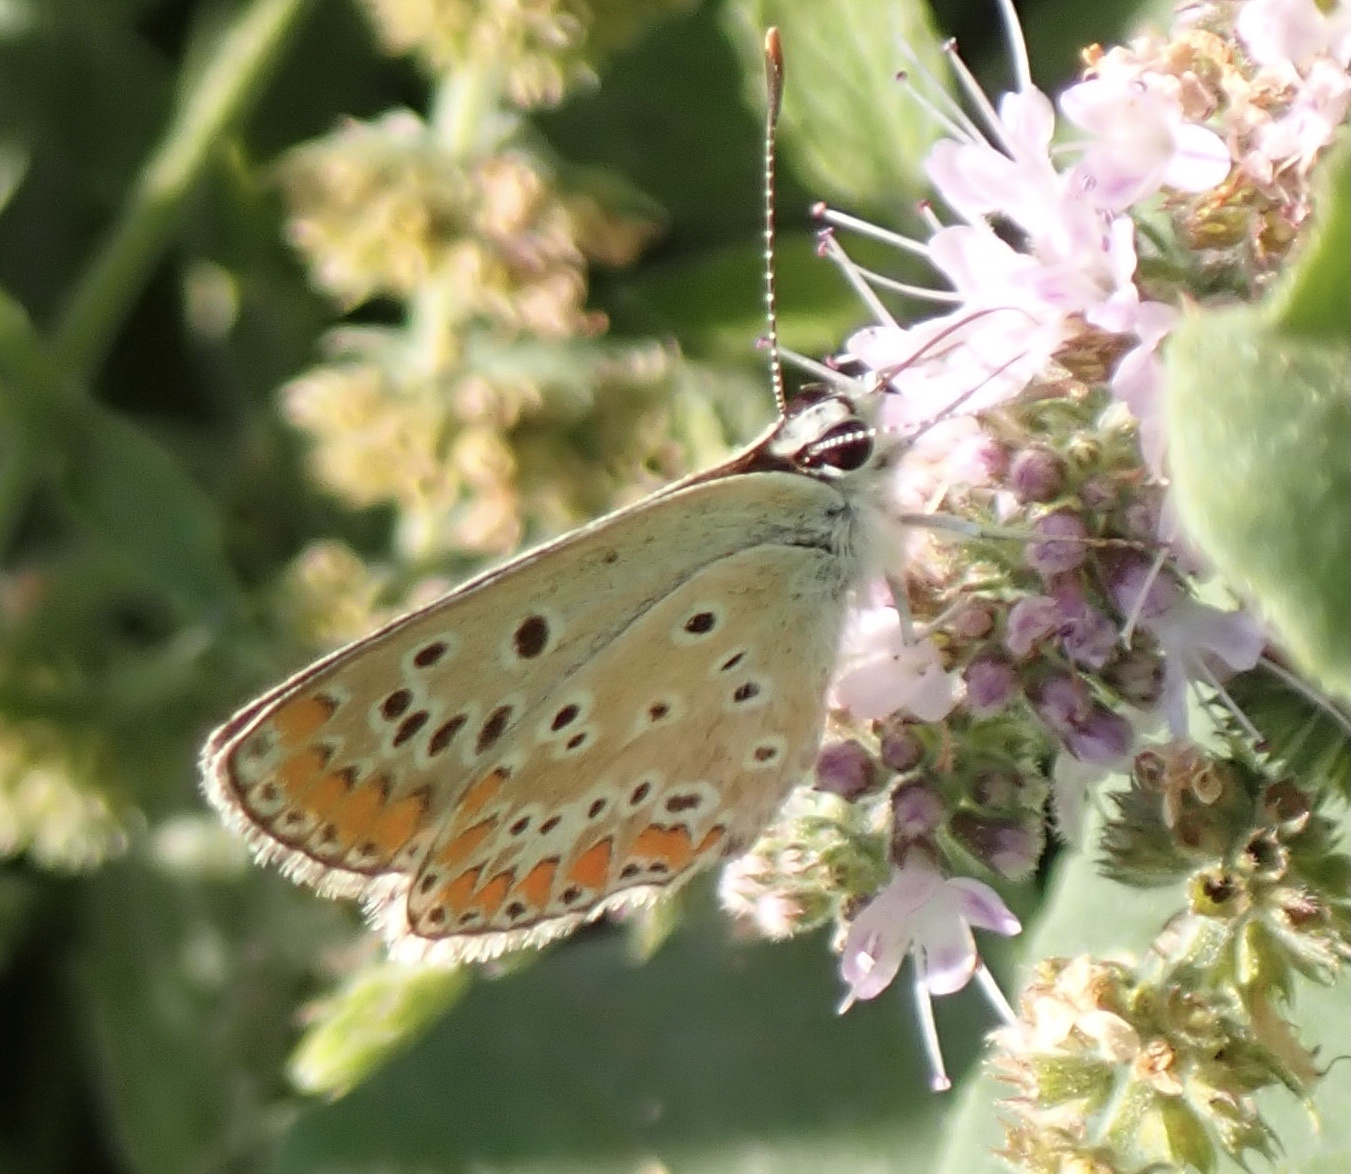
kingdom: Animalia
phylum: Arthropoda
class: Insecta
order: Lepidoptera
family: Lycaenidae
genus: Aricia
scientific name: Aricia agestis
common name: Brown argus
